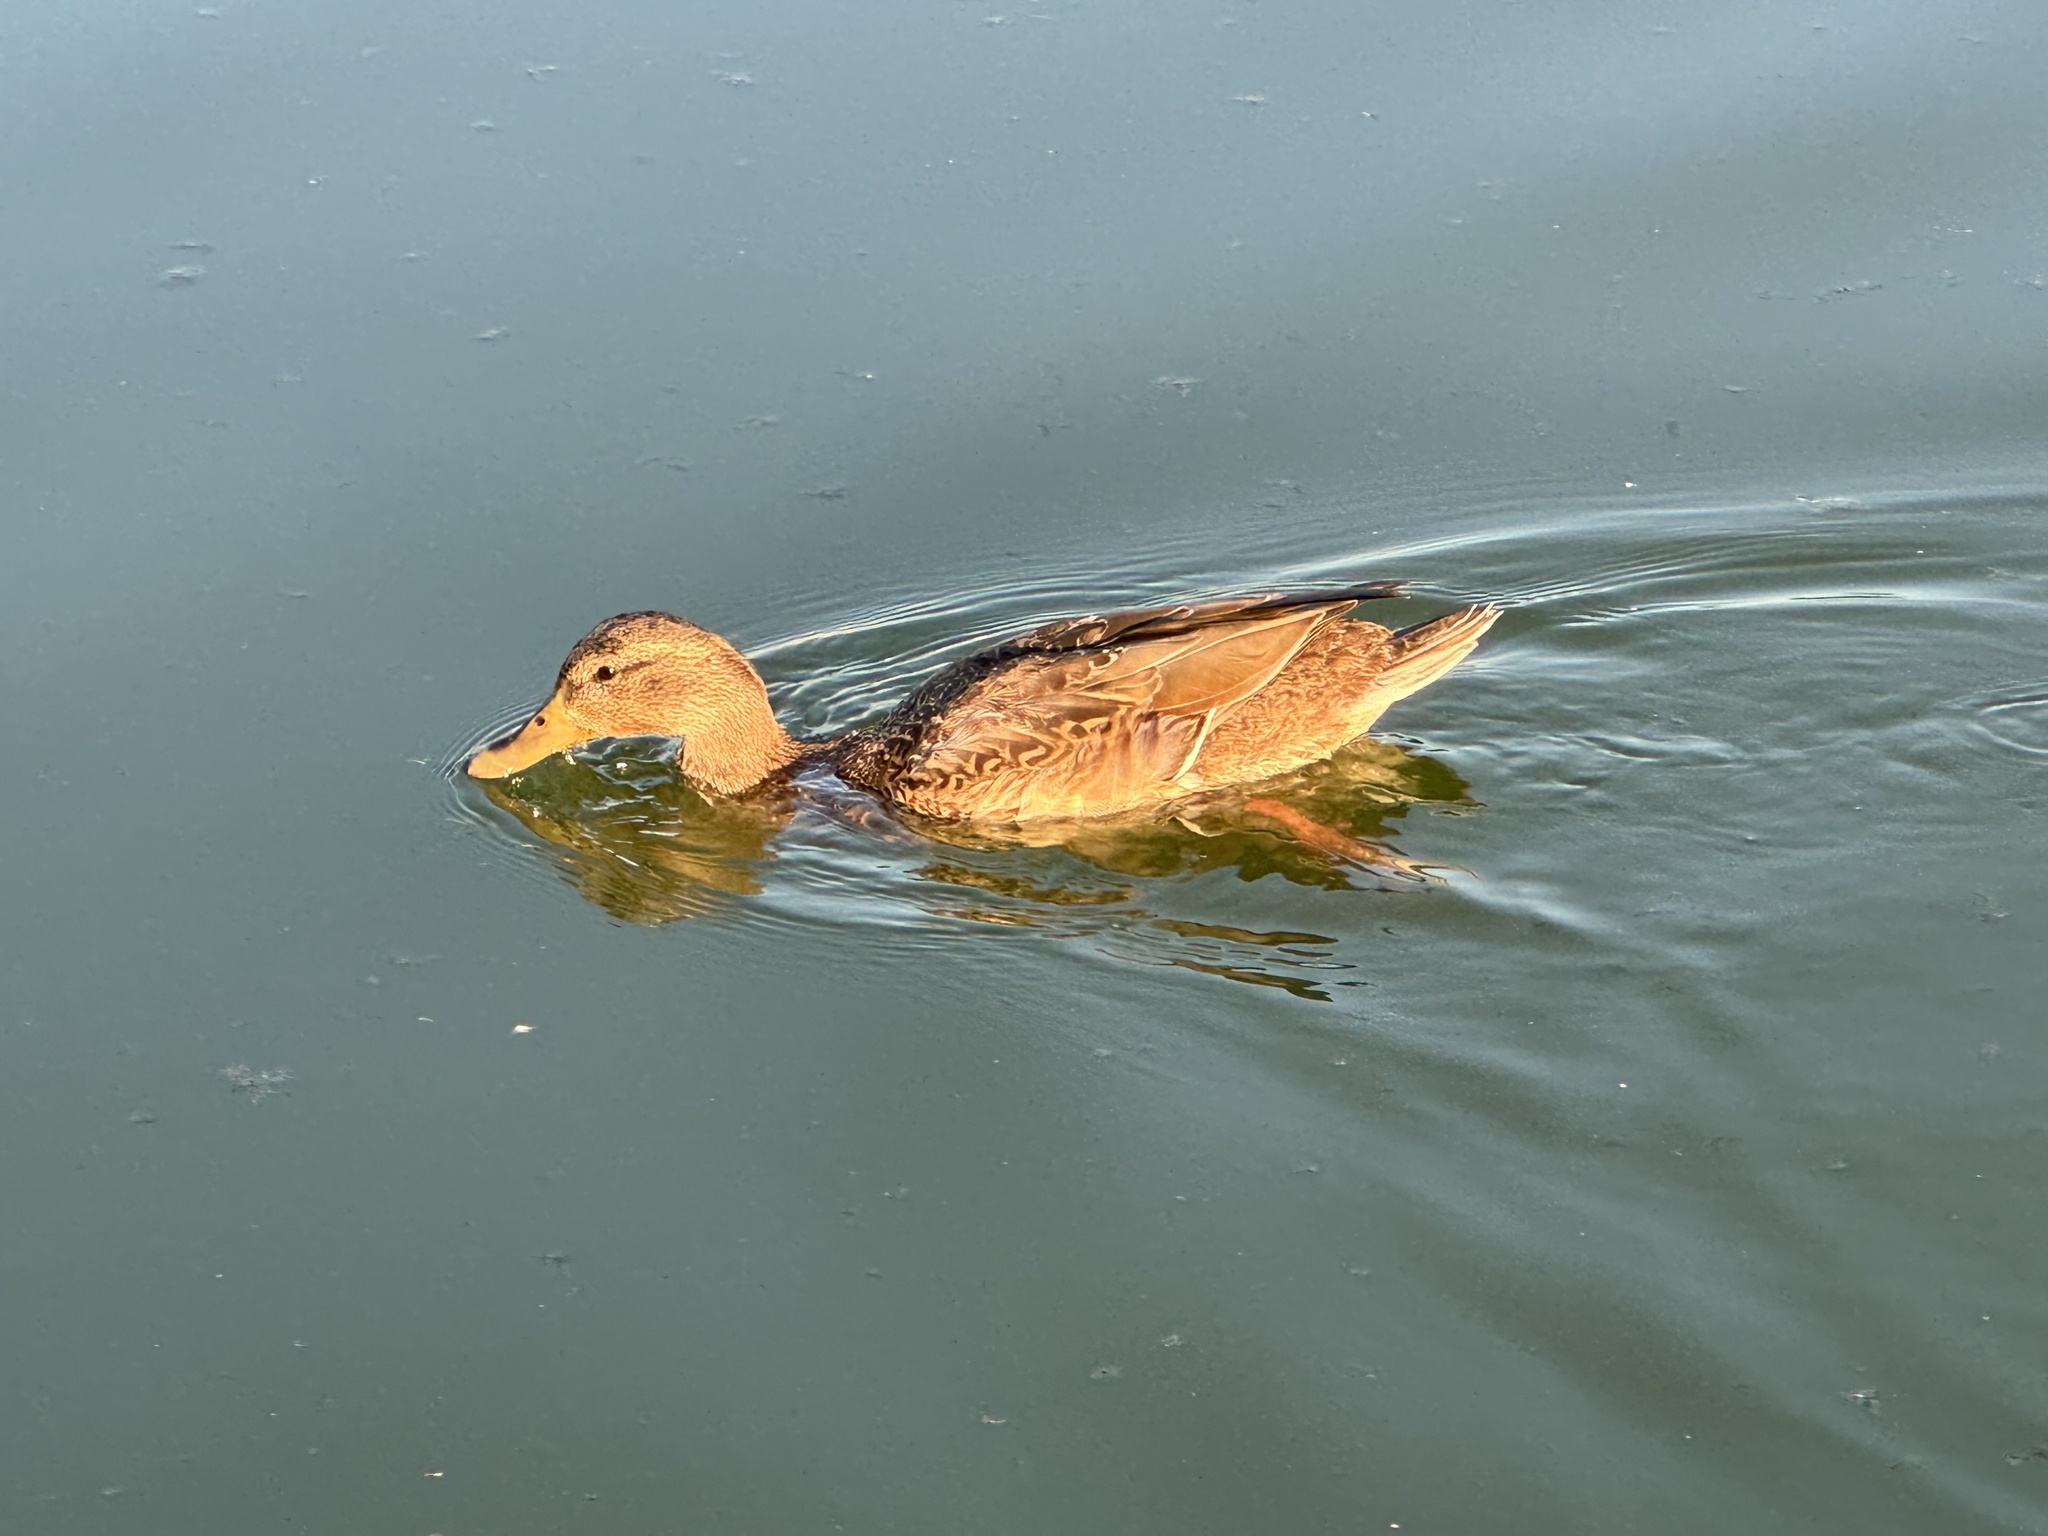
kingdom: Animalia
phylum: Chordata
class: Aves
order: Anseriformes
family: Anatidae
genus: Anas
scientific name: Anas platyrhynchos
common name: Mallard
